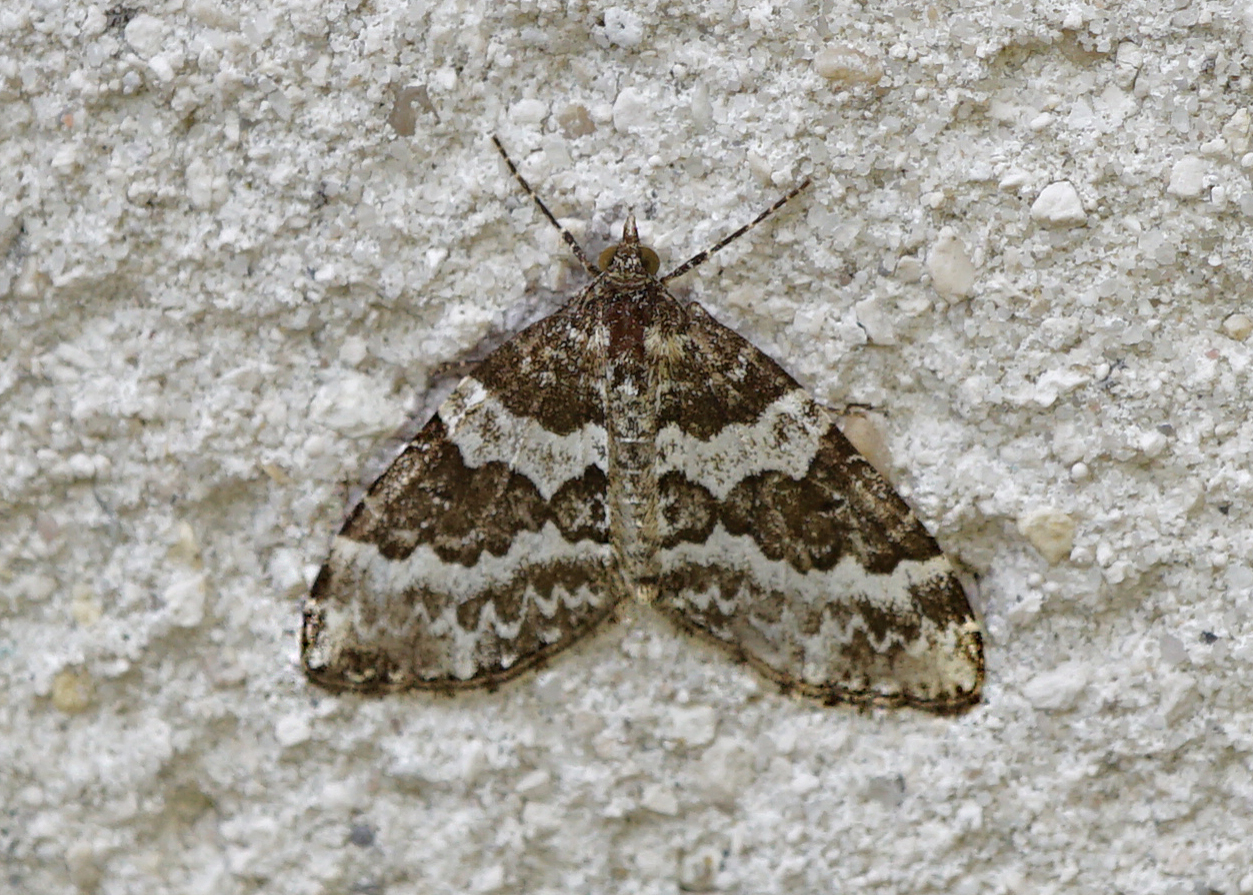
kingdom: Animalia
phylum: Arthropoda
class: Insecta
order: Lepidoptera
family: Geometridae
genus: Electrophaes
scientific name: Electrophaes corylata
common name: Broken-barred carpet
